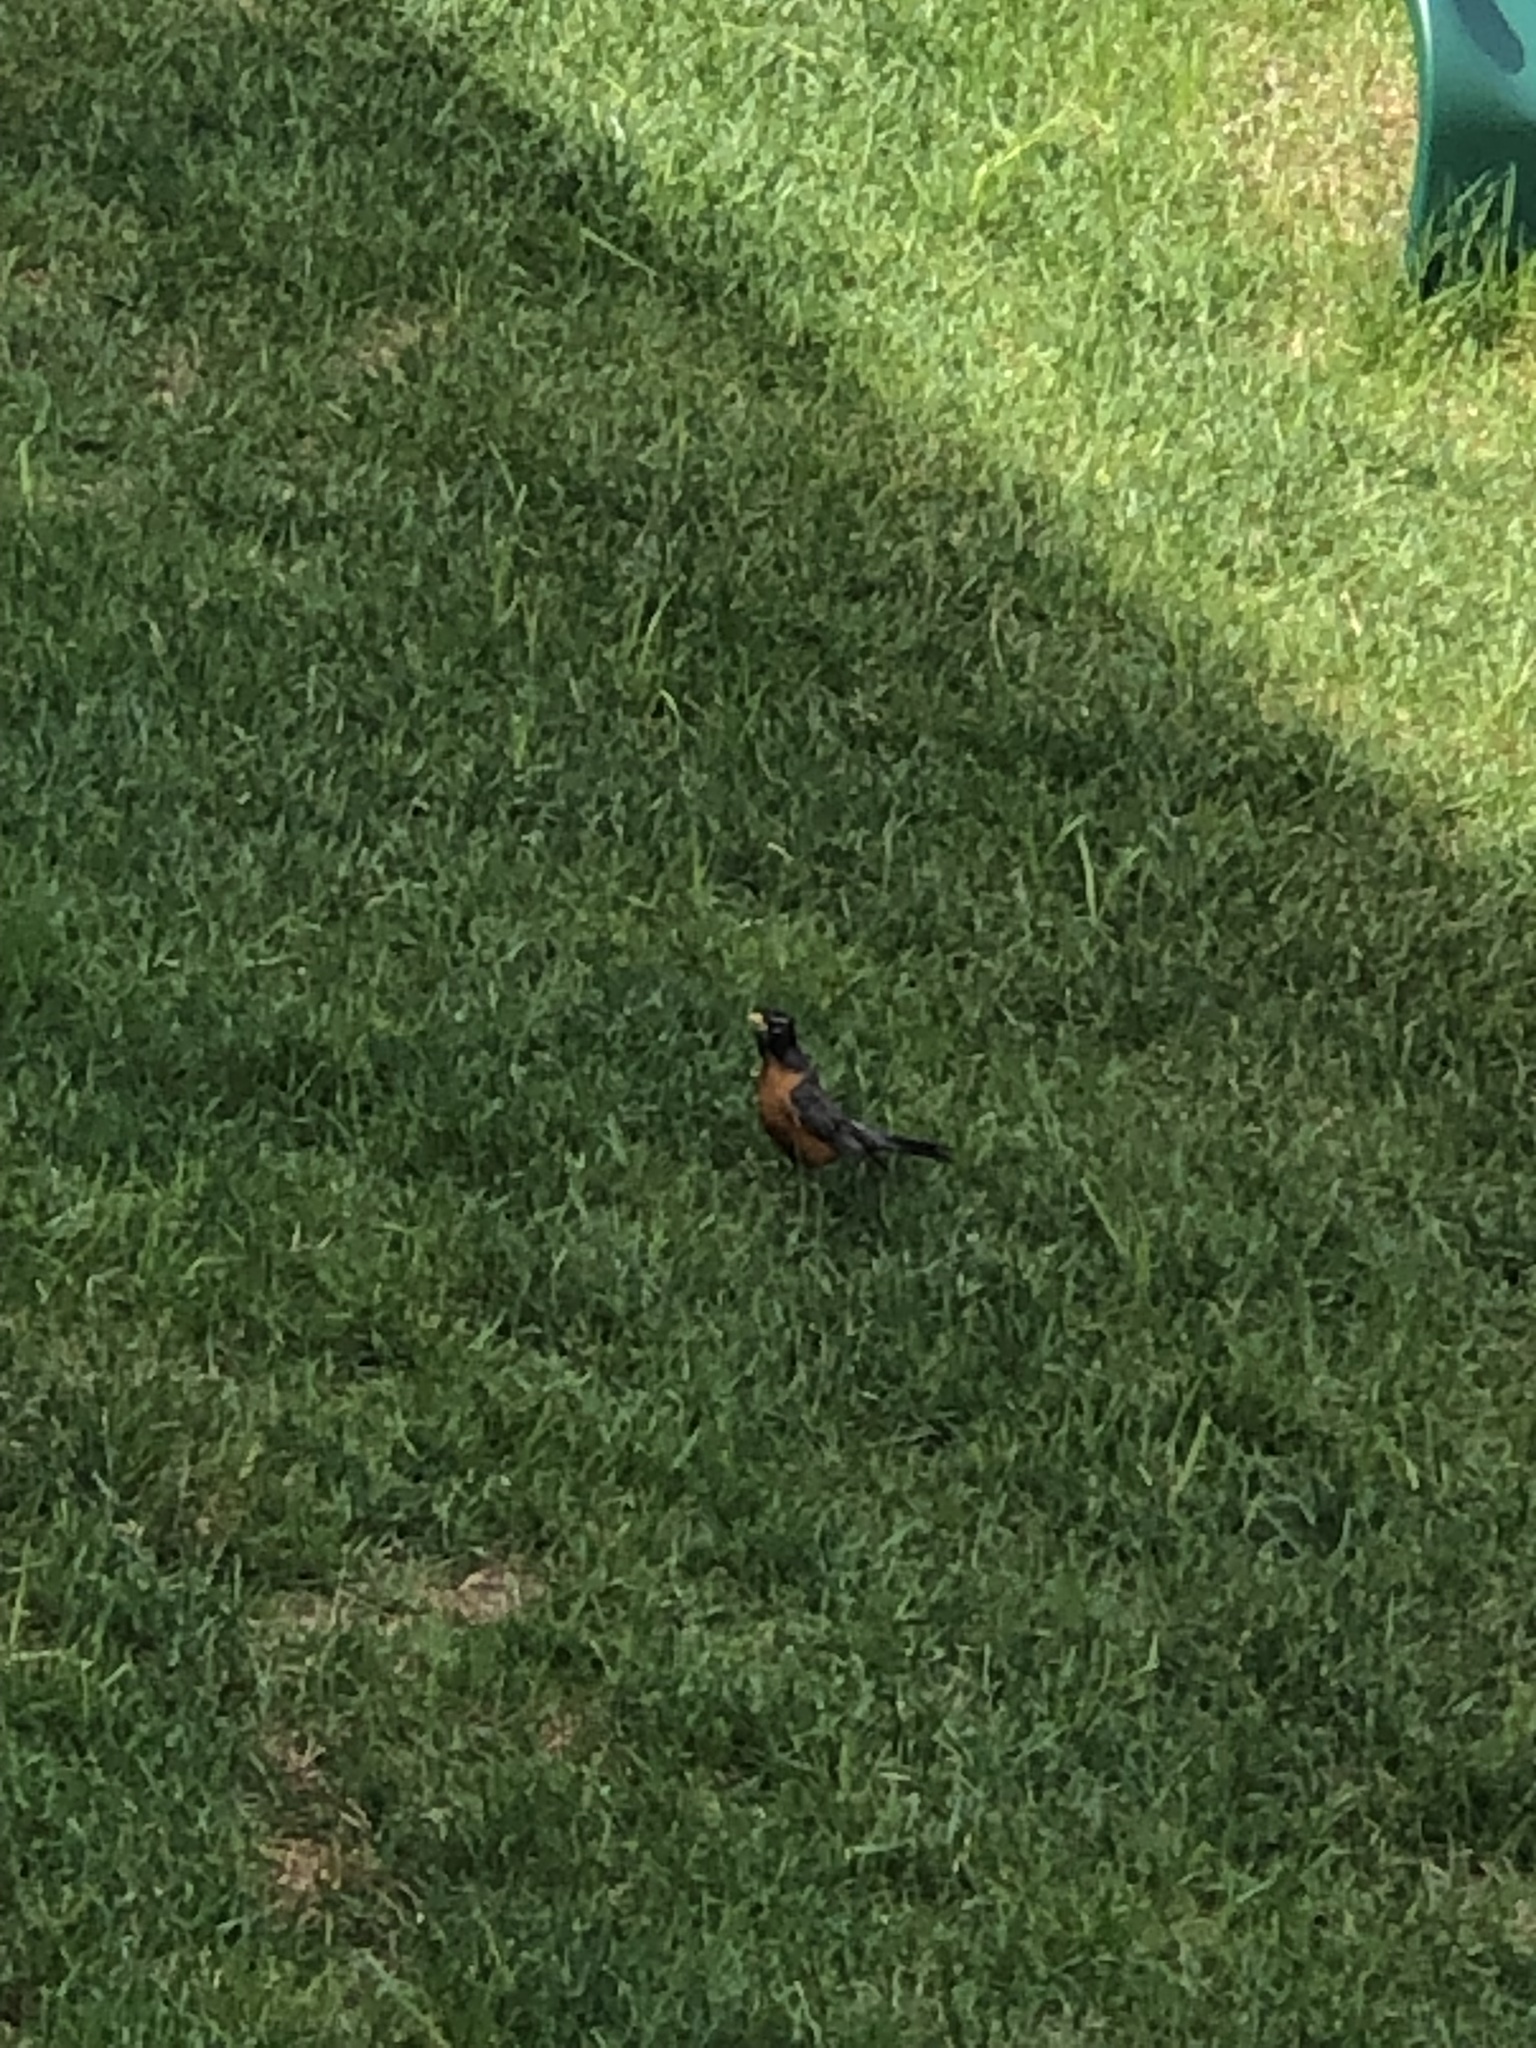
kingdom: Animalia
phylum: Chordata
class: Aves
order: Passeriformes
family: Turdidae
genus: Turdus
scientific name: Turdus migratorius
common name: American robin
